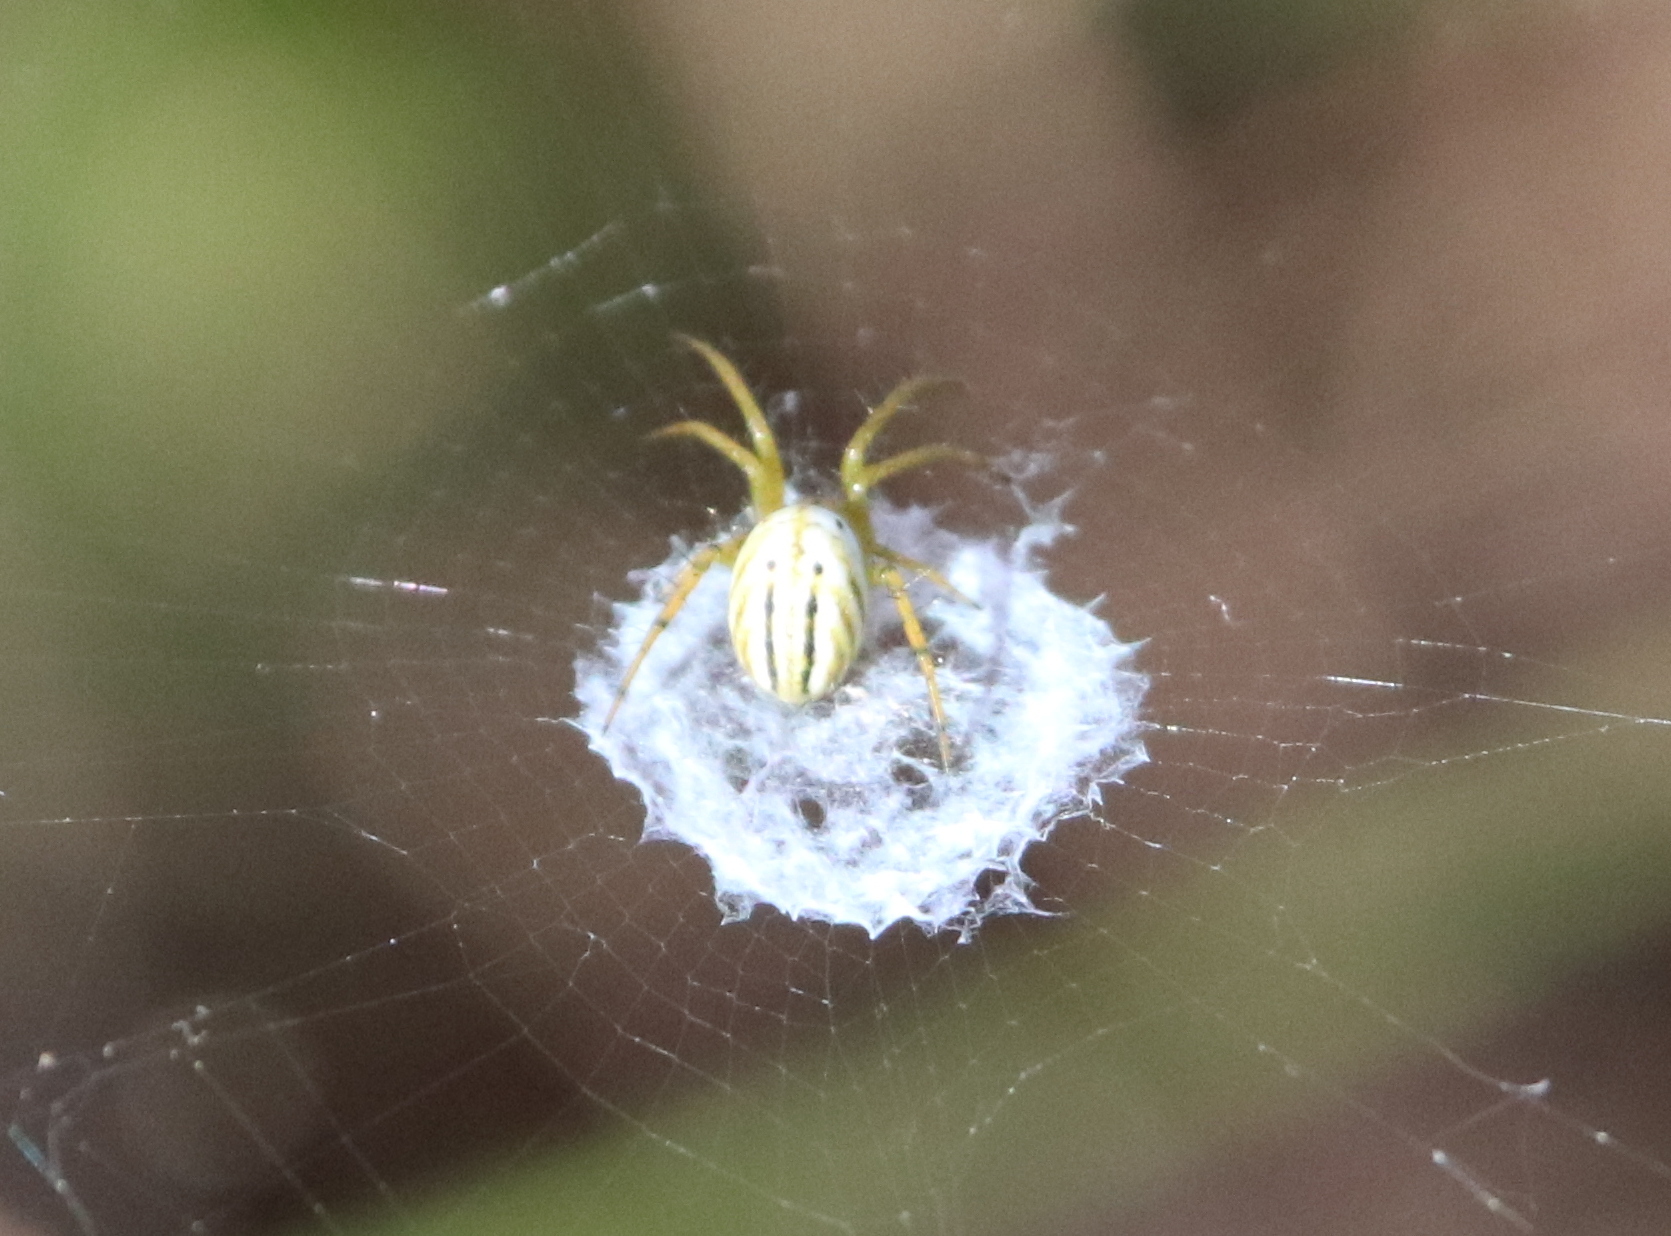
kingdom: Animalia
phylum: Arthropoda
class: Arachnida
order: Araneae
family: Araneidae
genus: Mangora
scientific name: Mangora gibberosa
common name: Lined orbweaver
